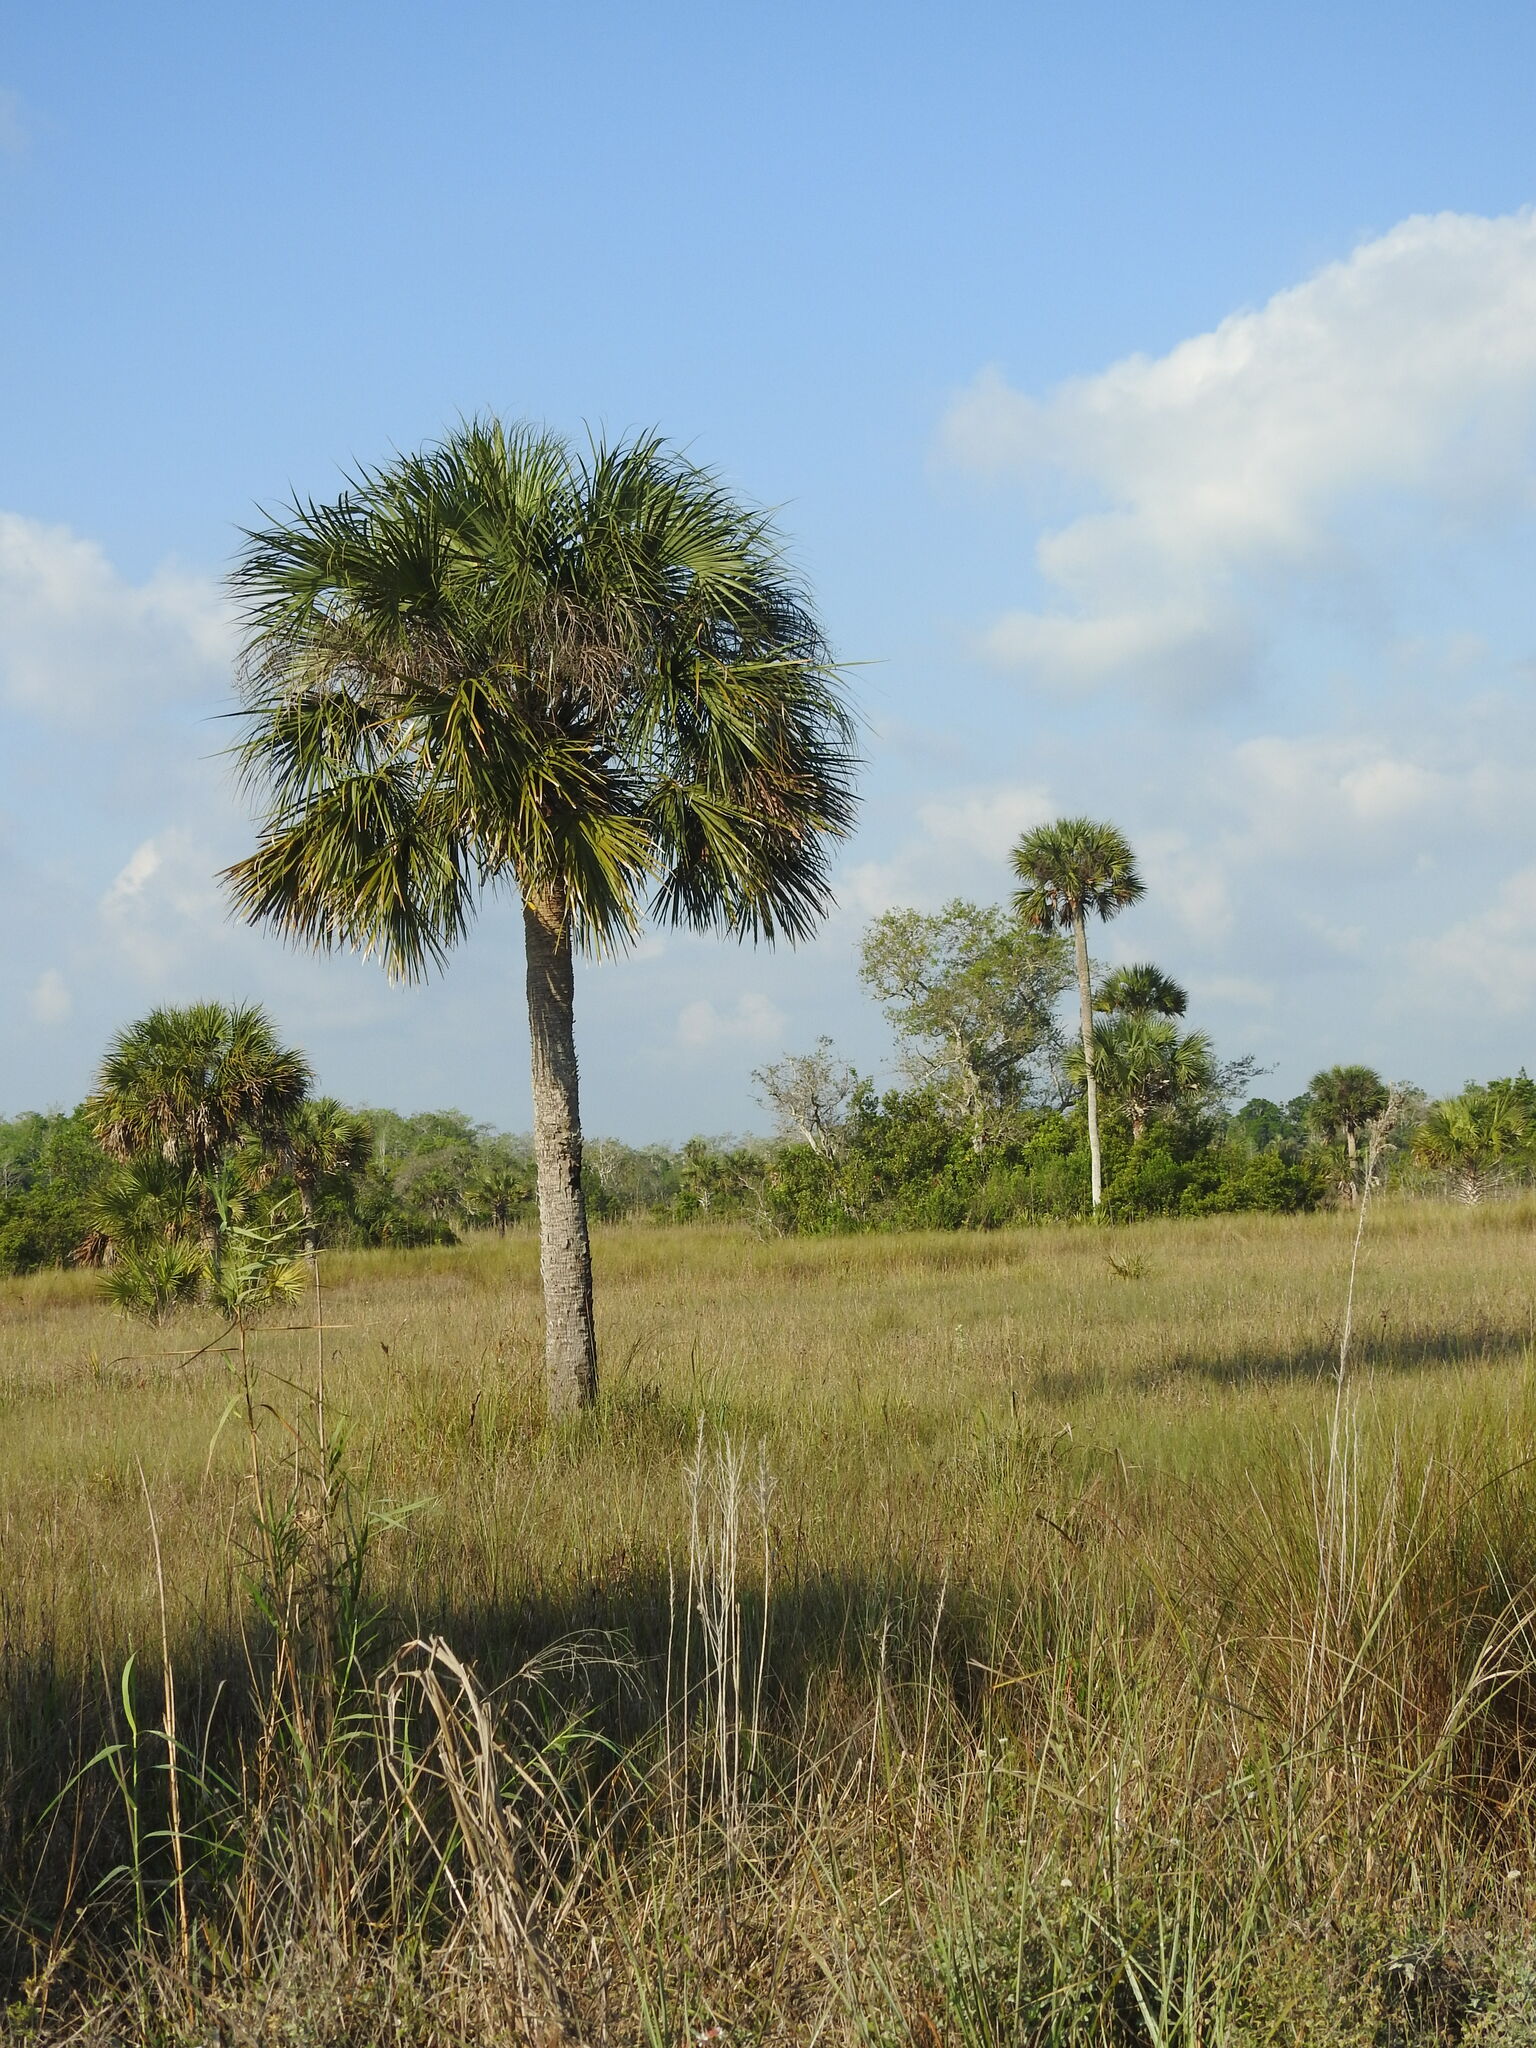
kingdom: Plantae
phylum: Tracheophyta
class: Liliopsida
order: Arecales
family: Arecaceae
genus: Sabal
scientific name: Sabal palmetto
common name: Blue palmetto
